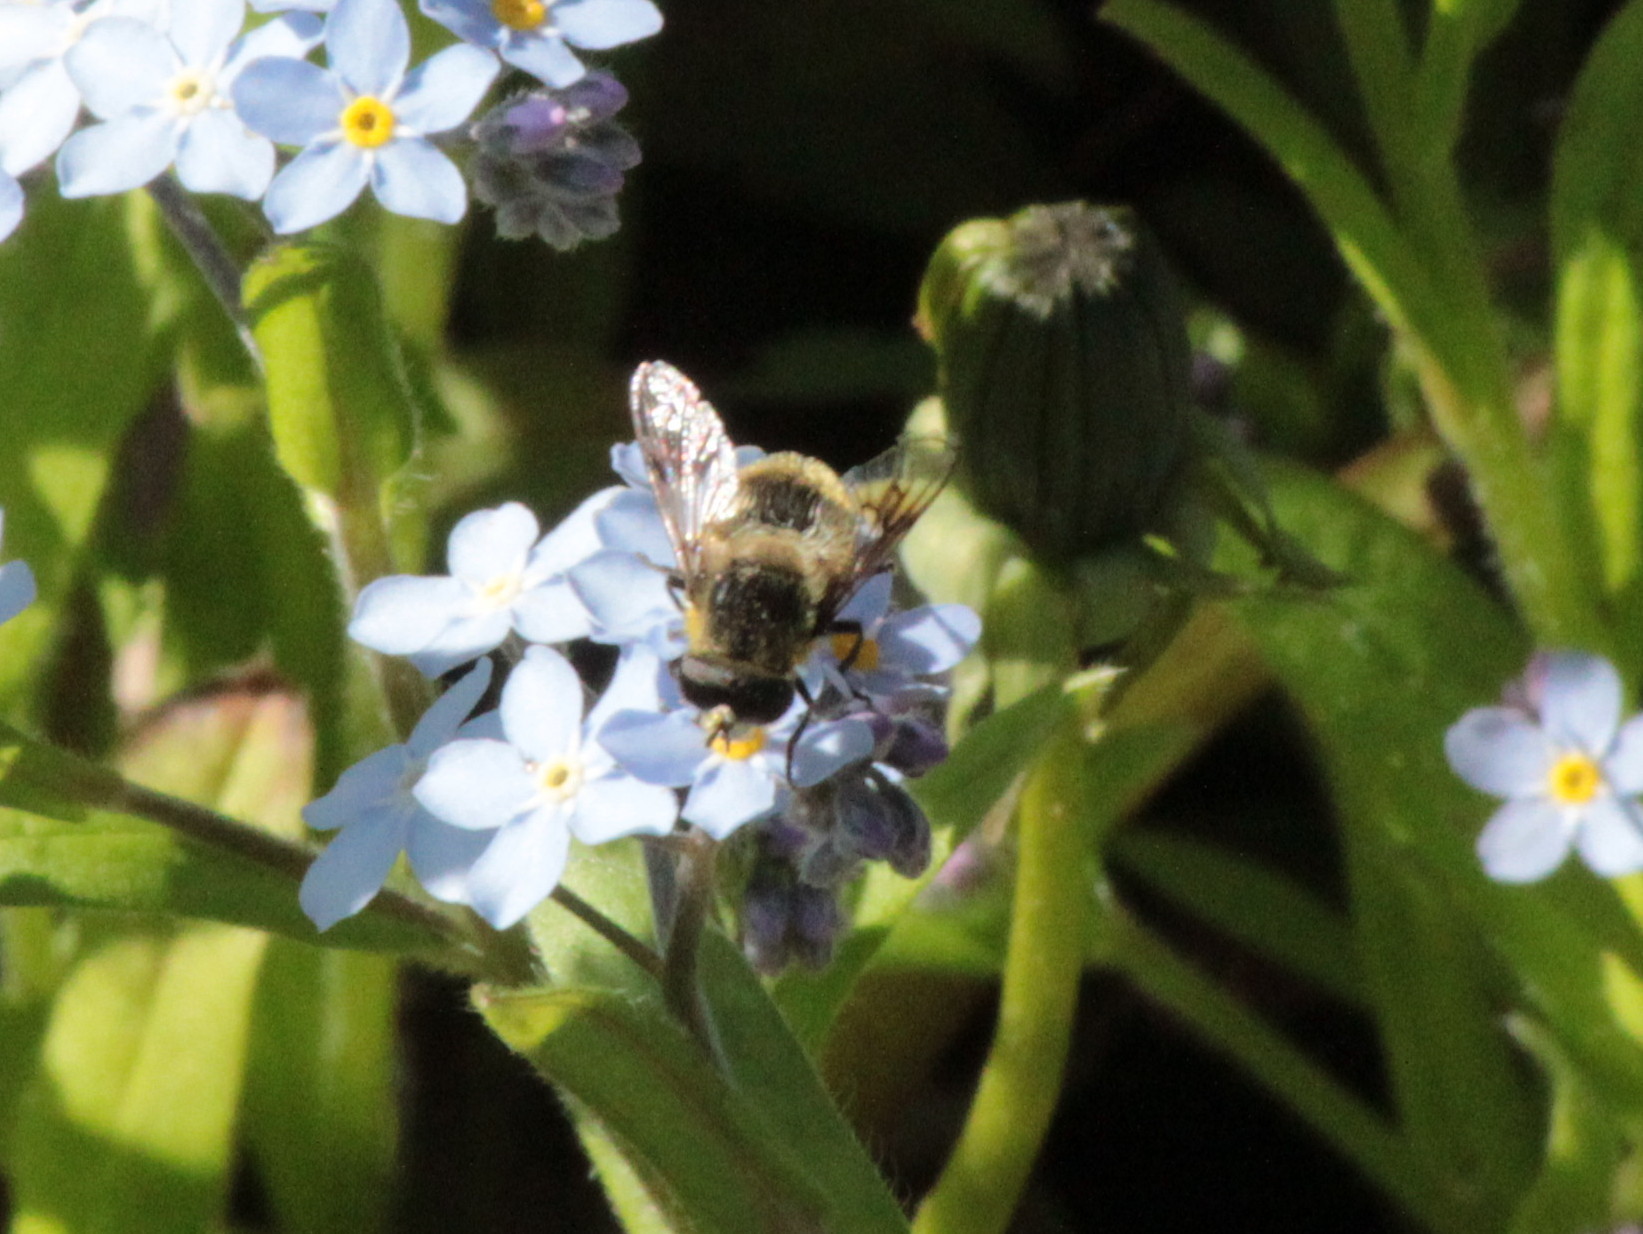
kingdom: Animalia
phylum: Arthropoda
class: Insecta
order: Diptera
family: Syrphidae
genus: Eristalis
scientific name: Eristalis anthophorina
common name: Orange-spotted drone fly
